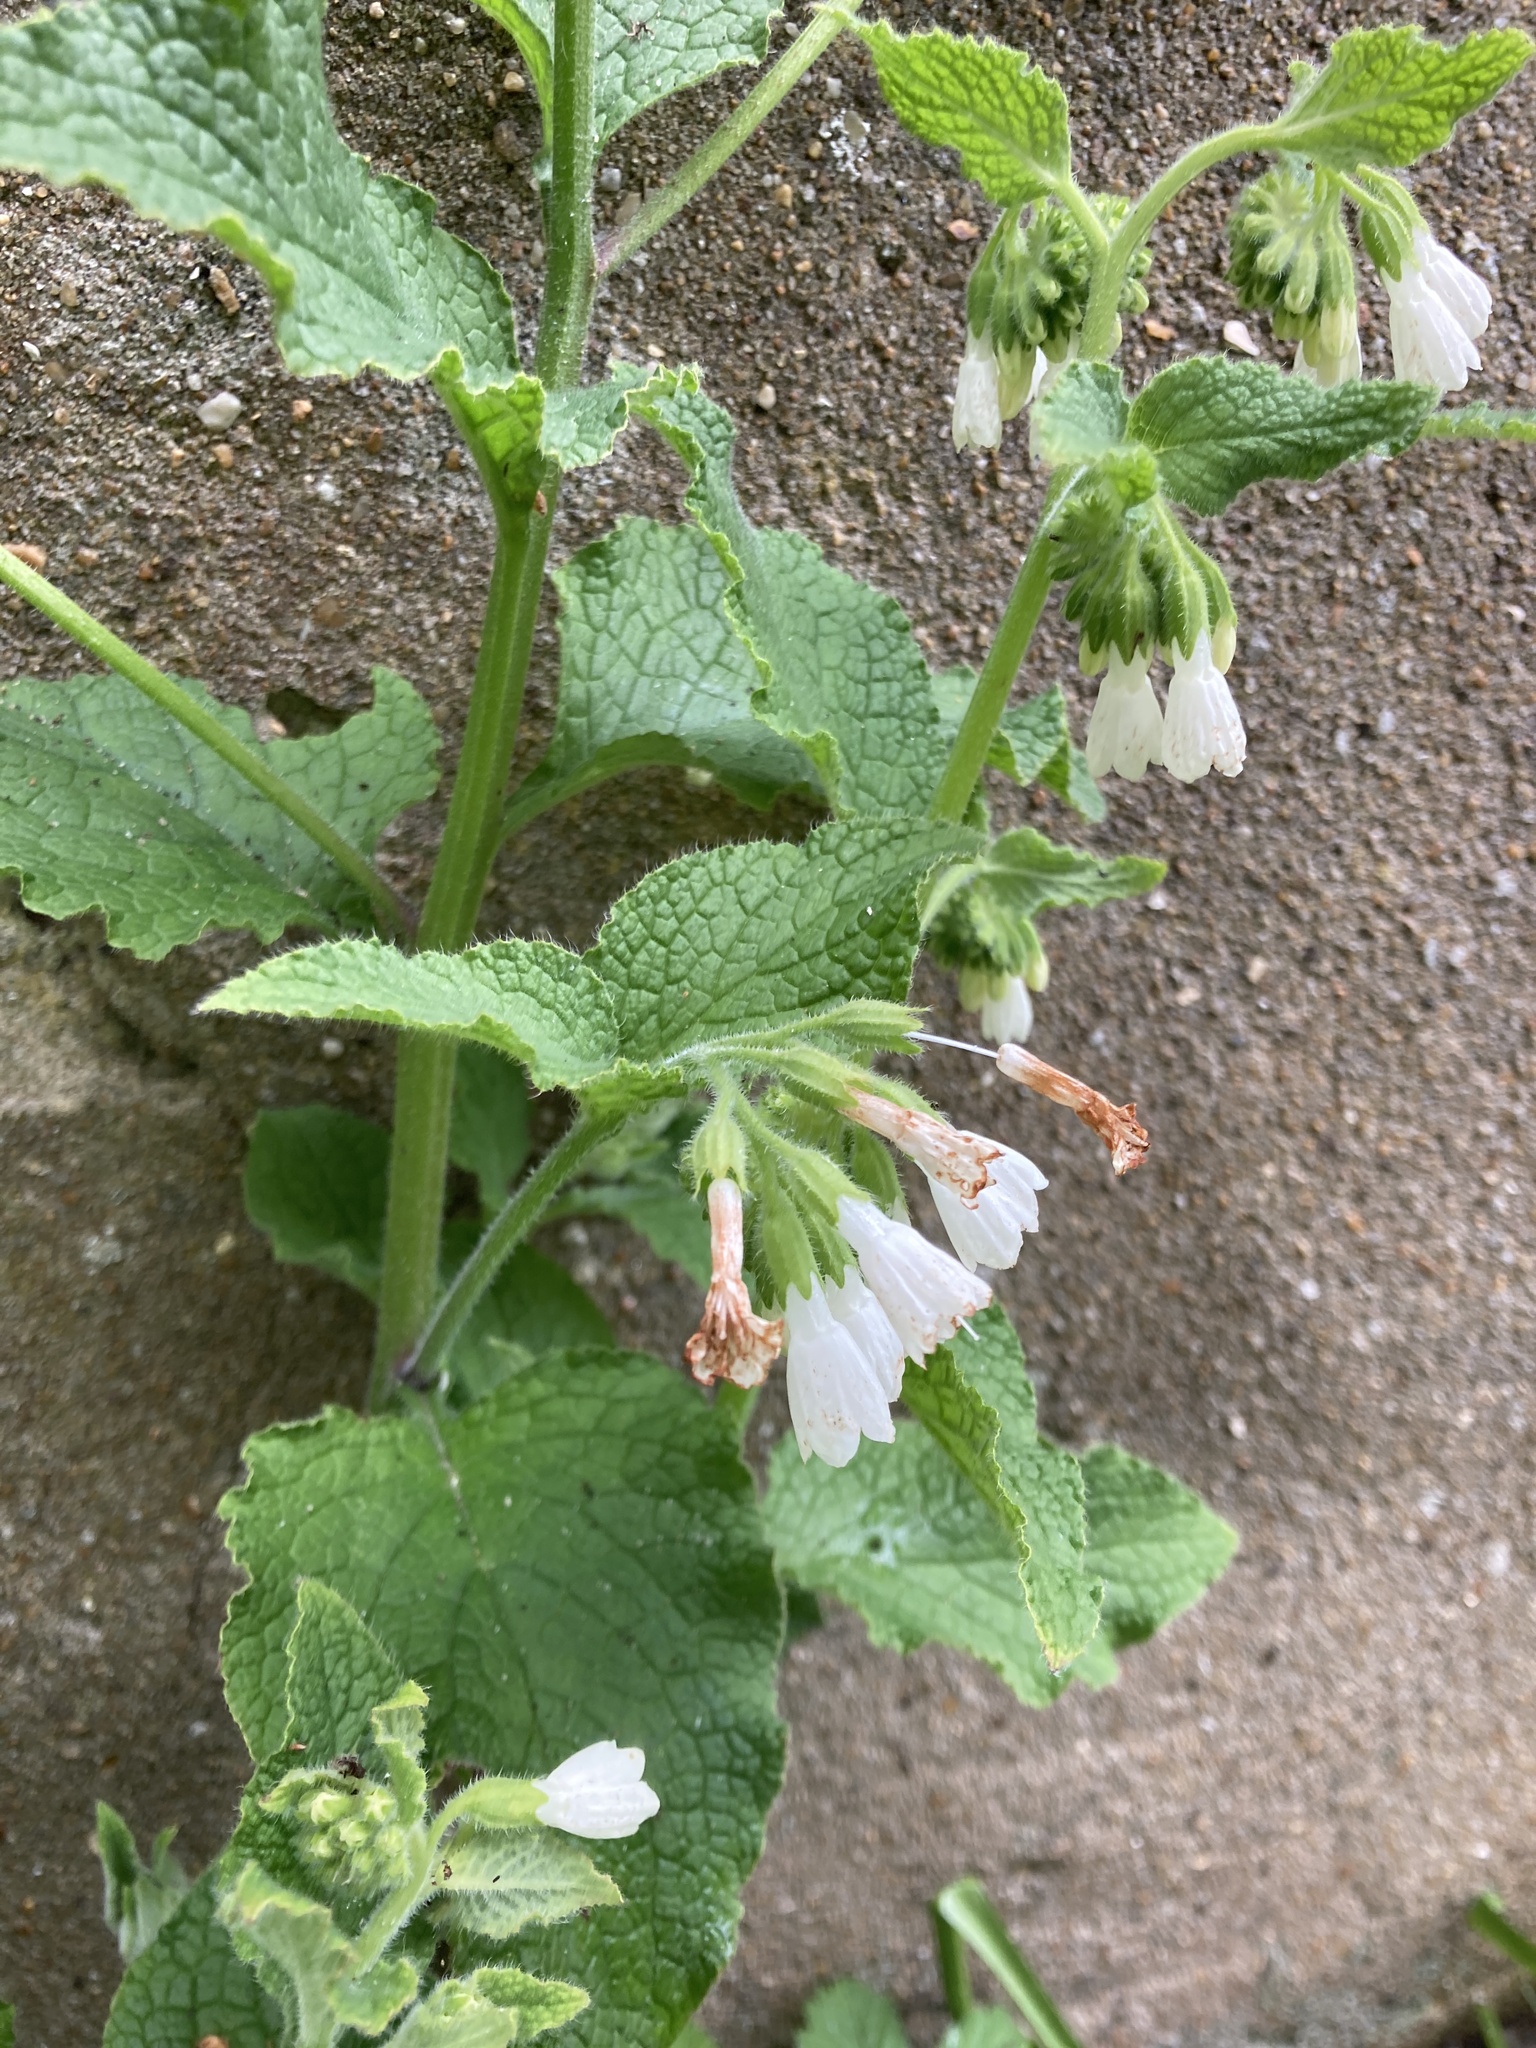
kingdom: Plantae
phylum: Tracheophyta
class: Magnoliopsida
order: Boraginales
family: Boraginaceae
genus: Symphytum
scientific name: Symphytum orientale
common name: White comfrey
